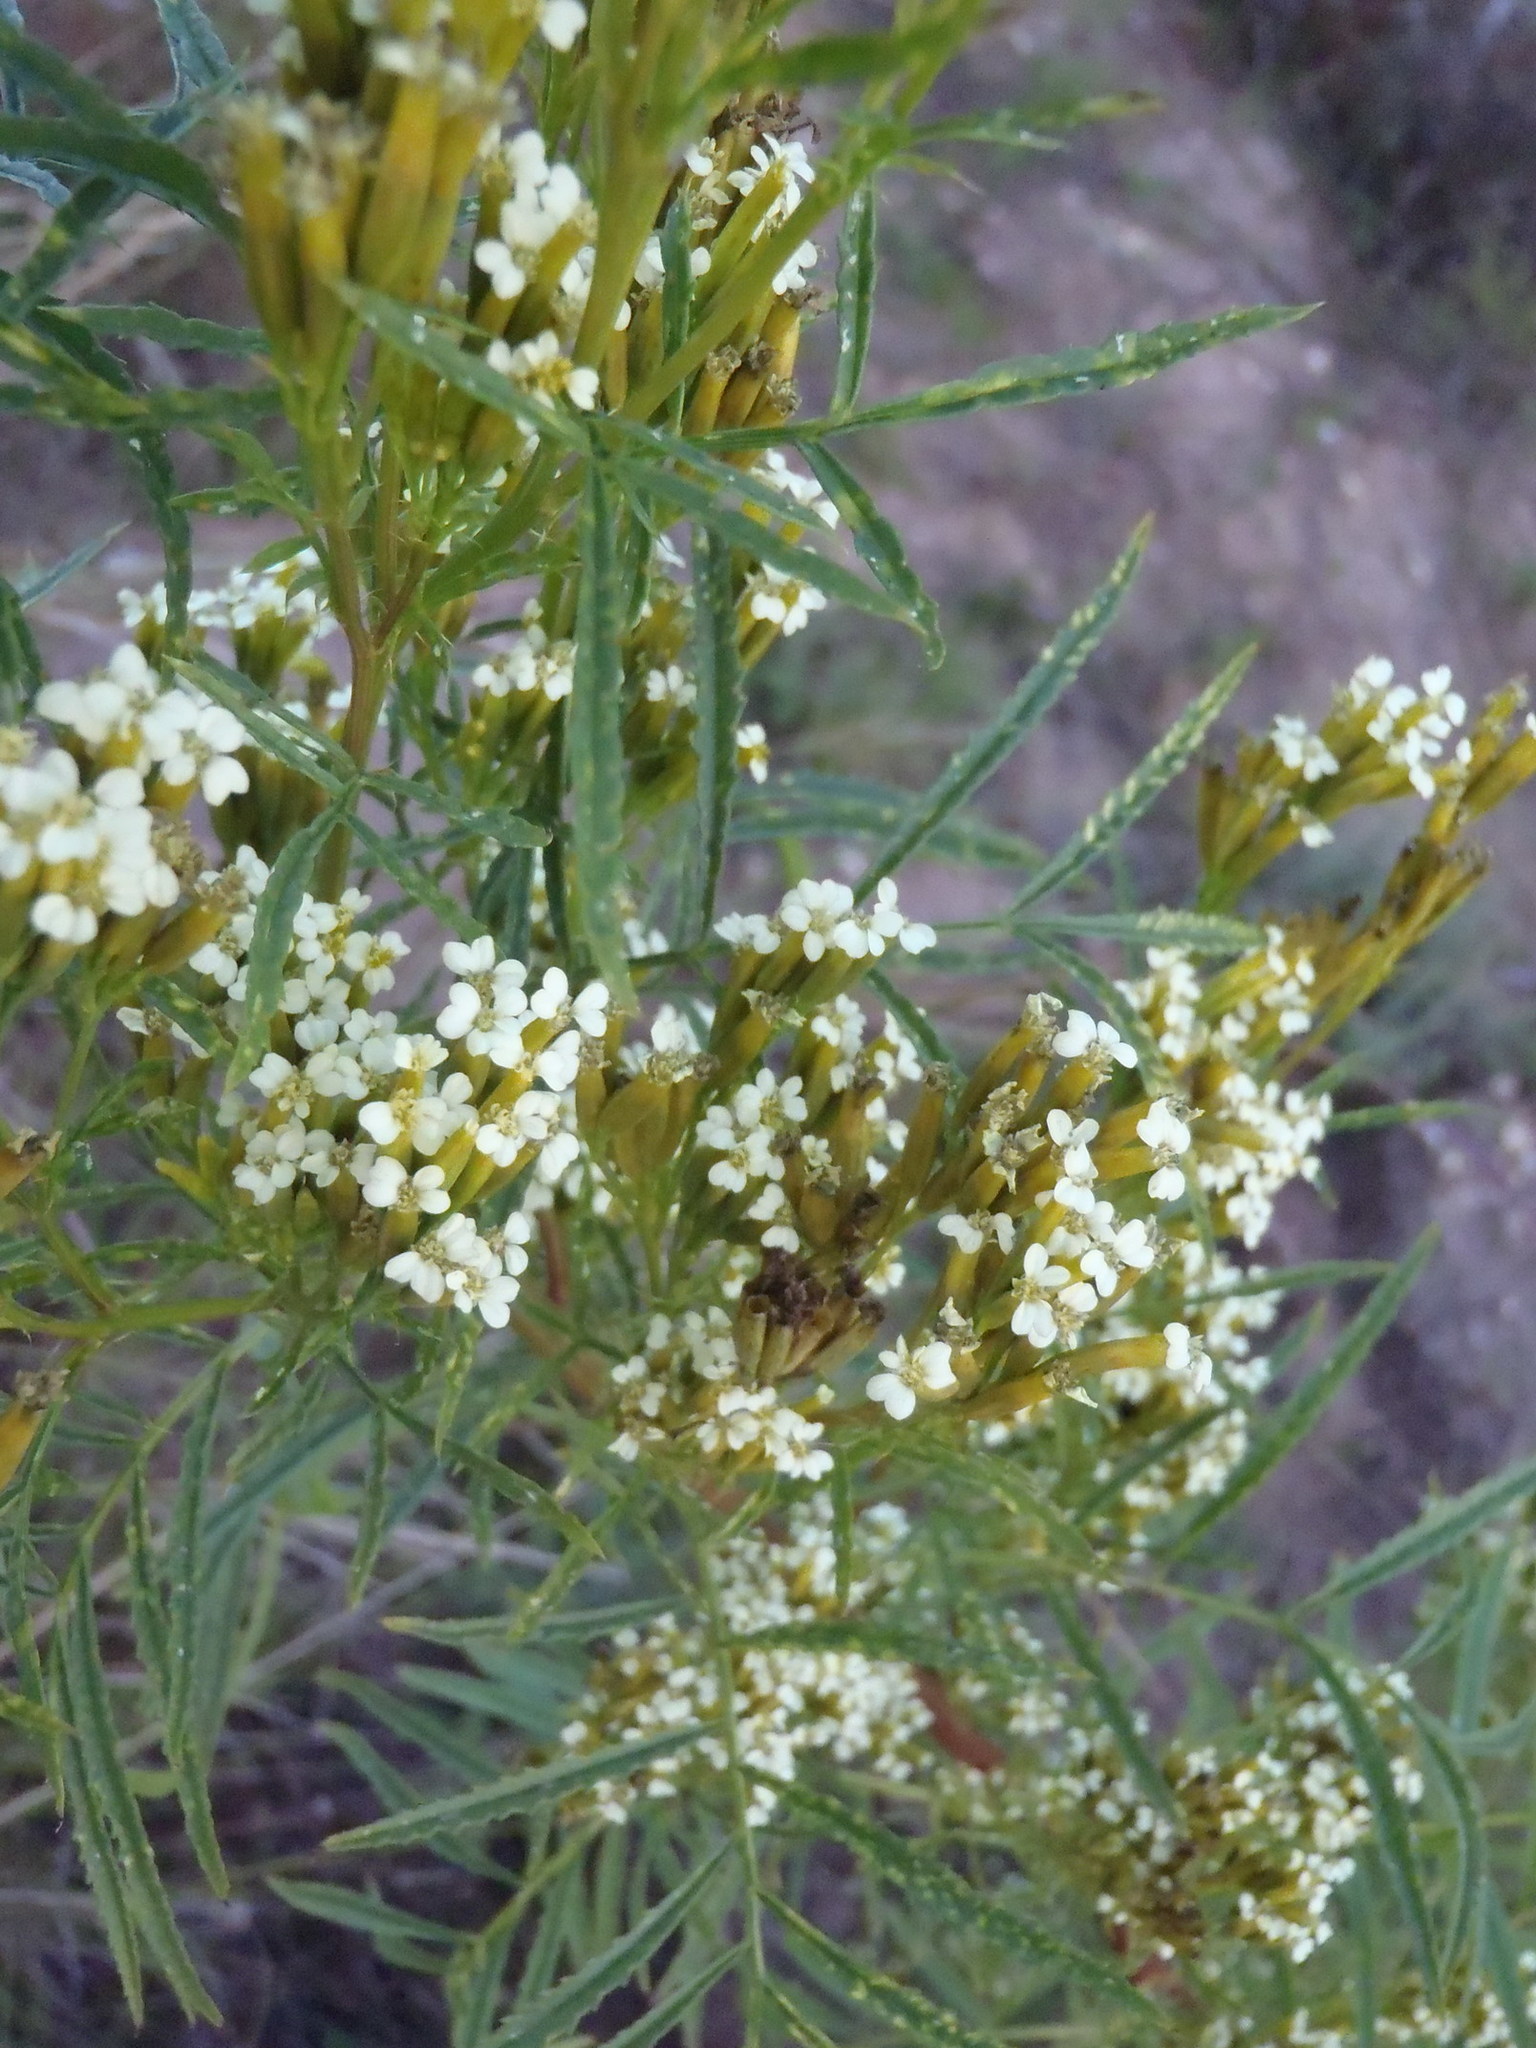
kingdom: Plantae
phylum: Tracheophyta
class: Magnoliopsida
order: Asterales
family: Asteraceae
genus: Tagetes
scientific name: Tagetes minuta
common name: Muster john henry
